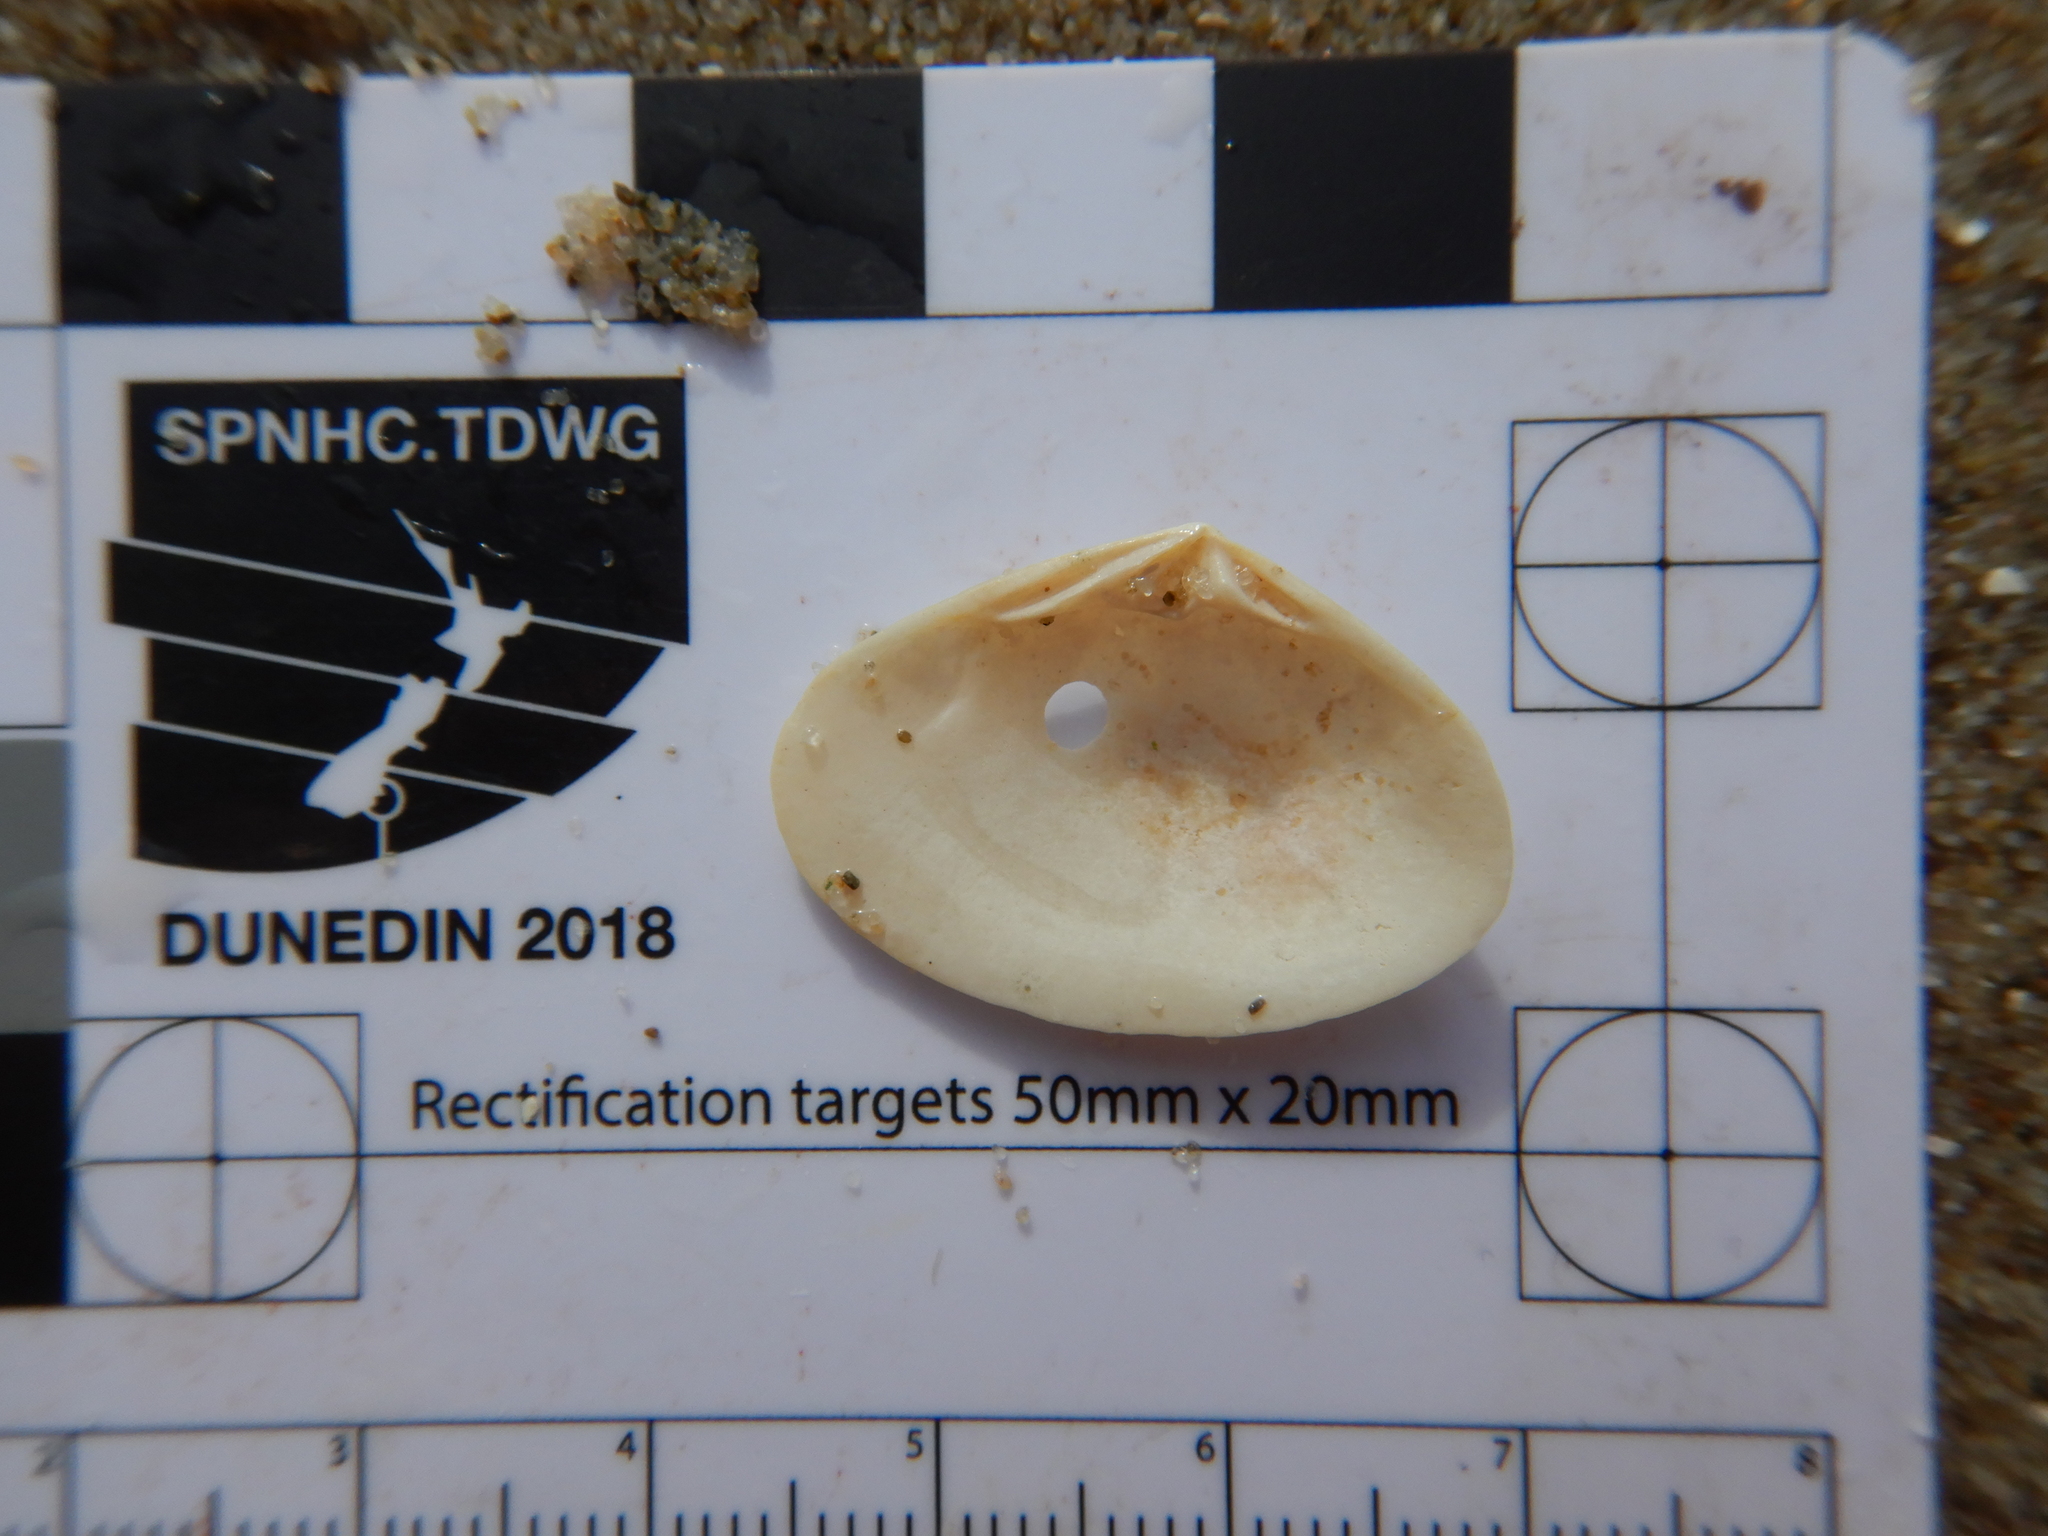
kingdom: Animalia
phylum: Mollusca
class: Bivalvia
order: Venerida
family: Mesodesmatidae
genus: Atactodea
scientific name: Atactodea erycinaea
